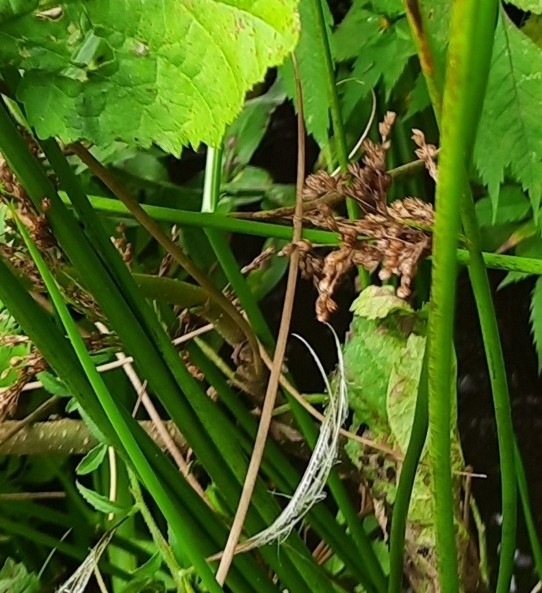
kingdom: Plantae
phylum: Tracheophyta
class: Liliopsida
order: Poales
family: Juncaceae
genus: Juncus
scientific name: Juncus effusus
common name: Soft rush
